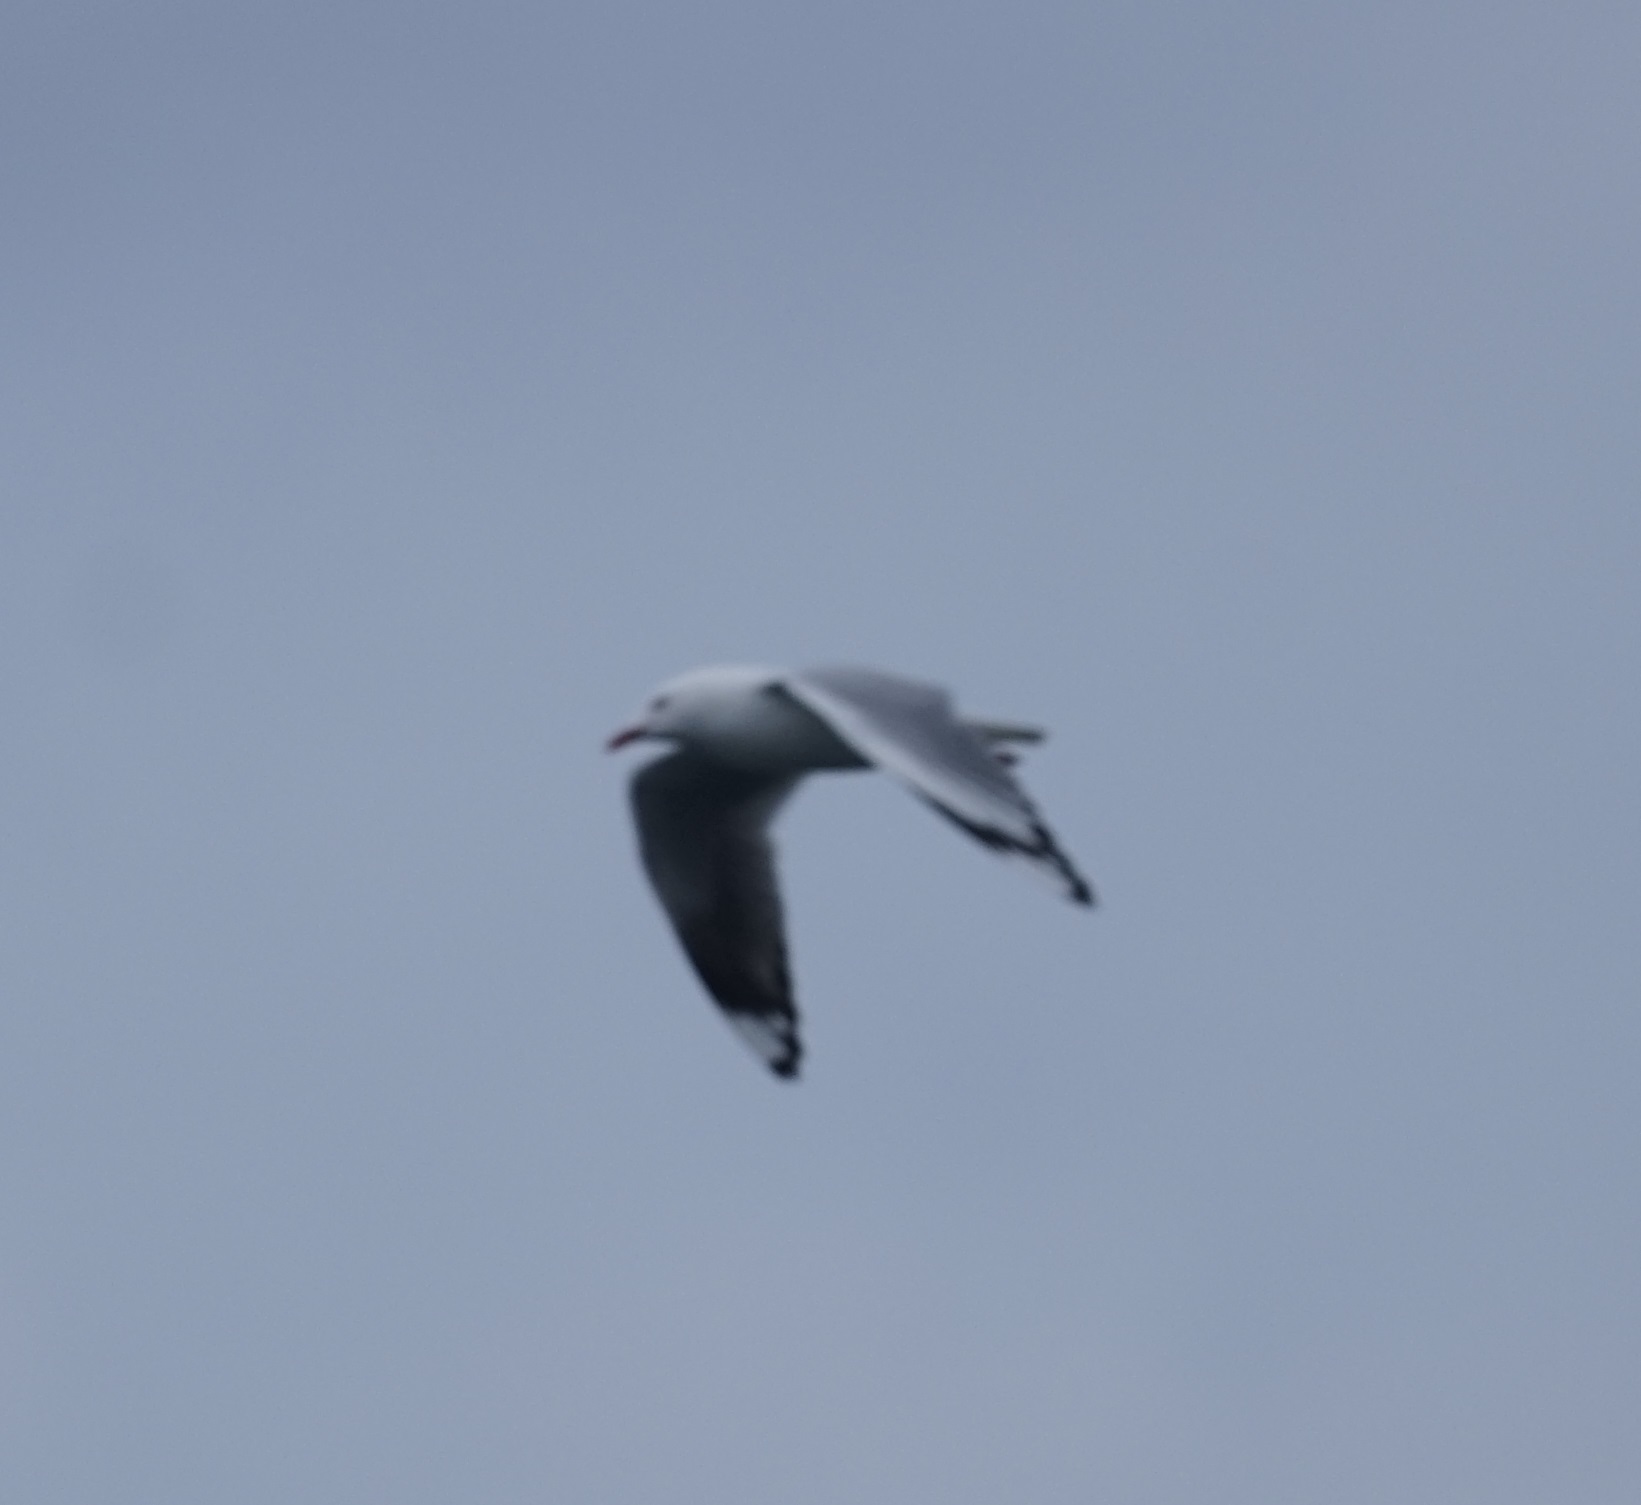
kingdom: Animalia
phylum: Chordata
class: Aves
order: Charadriiformes
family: Laridae
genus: Chroicocephalus
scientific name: Chroicocephalus novaehollandiae
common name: Silver gull
